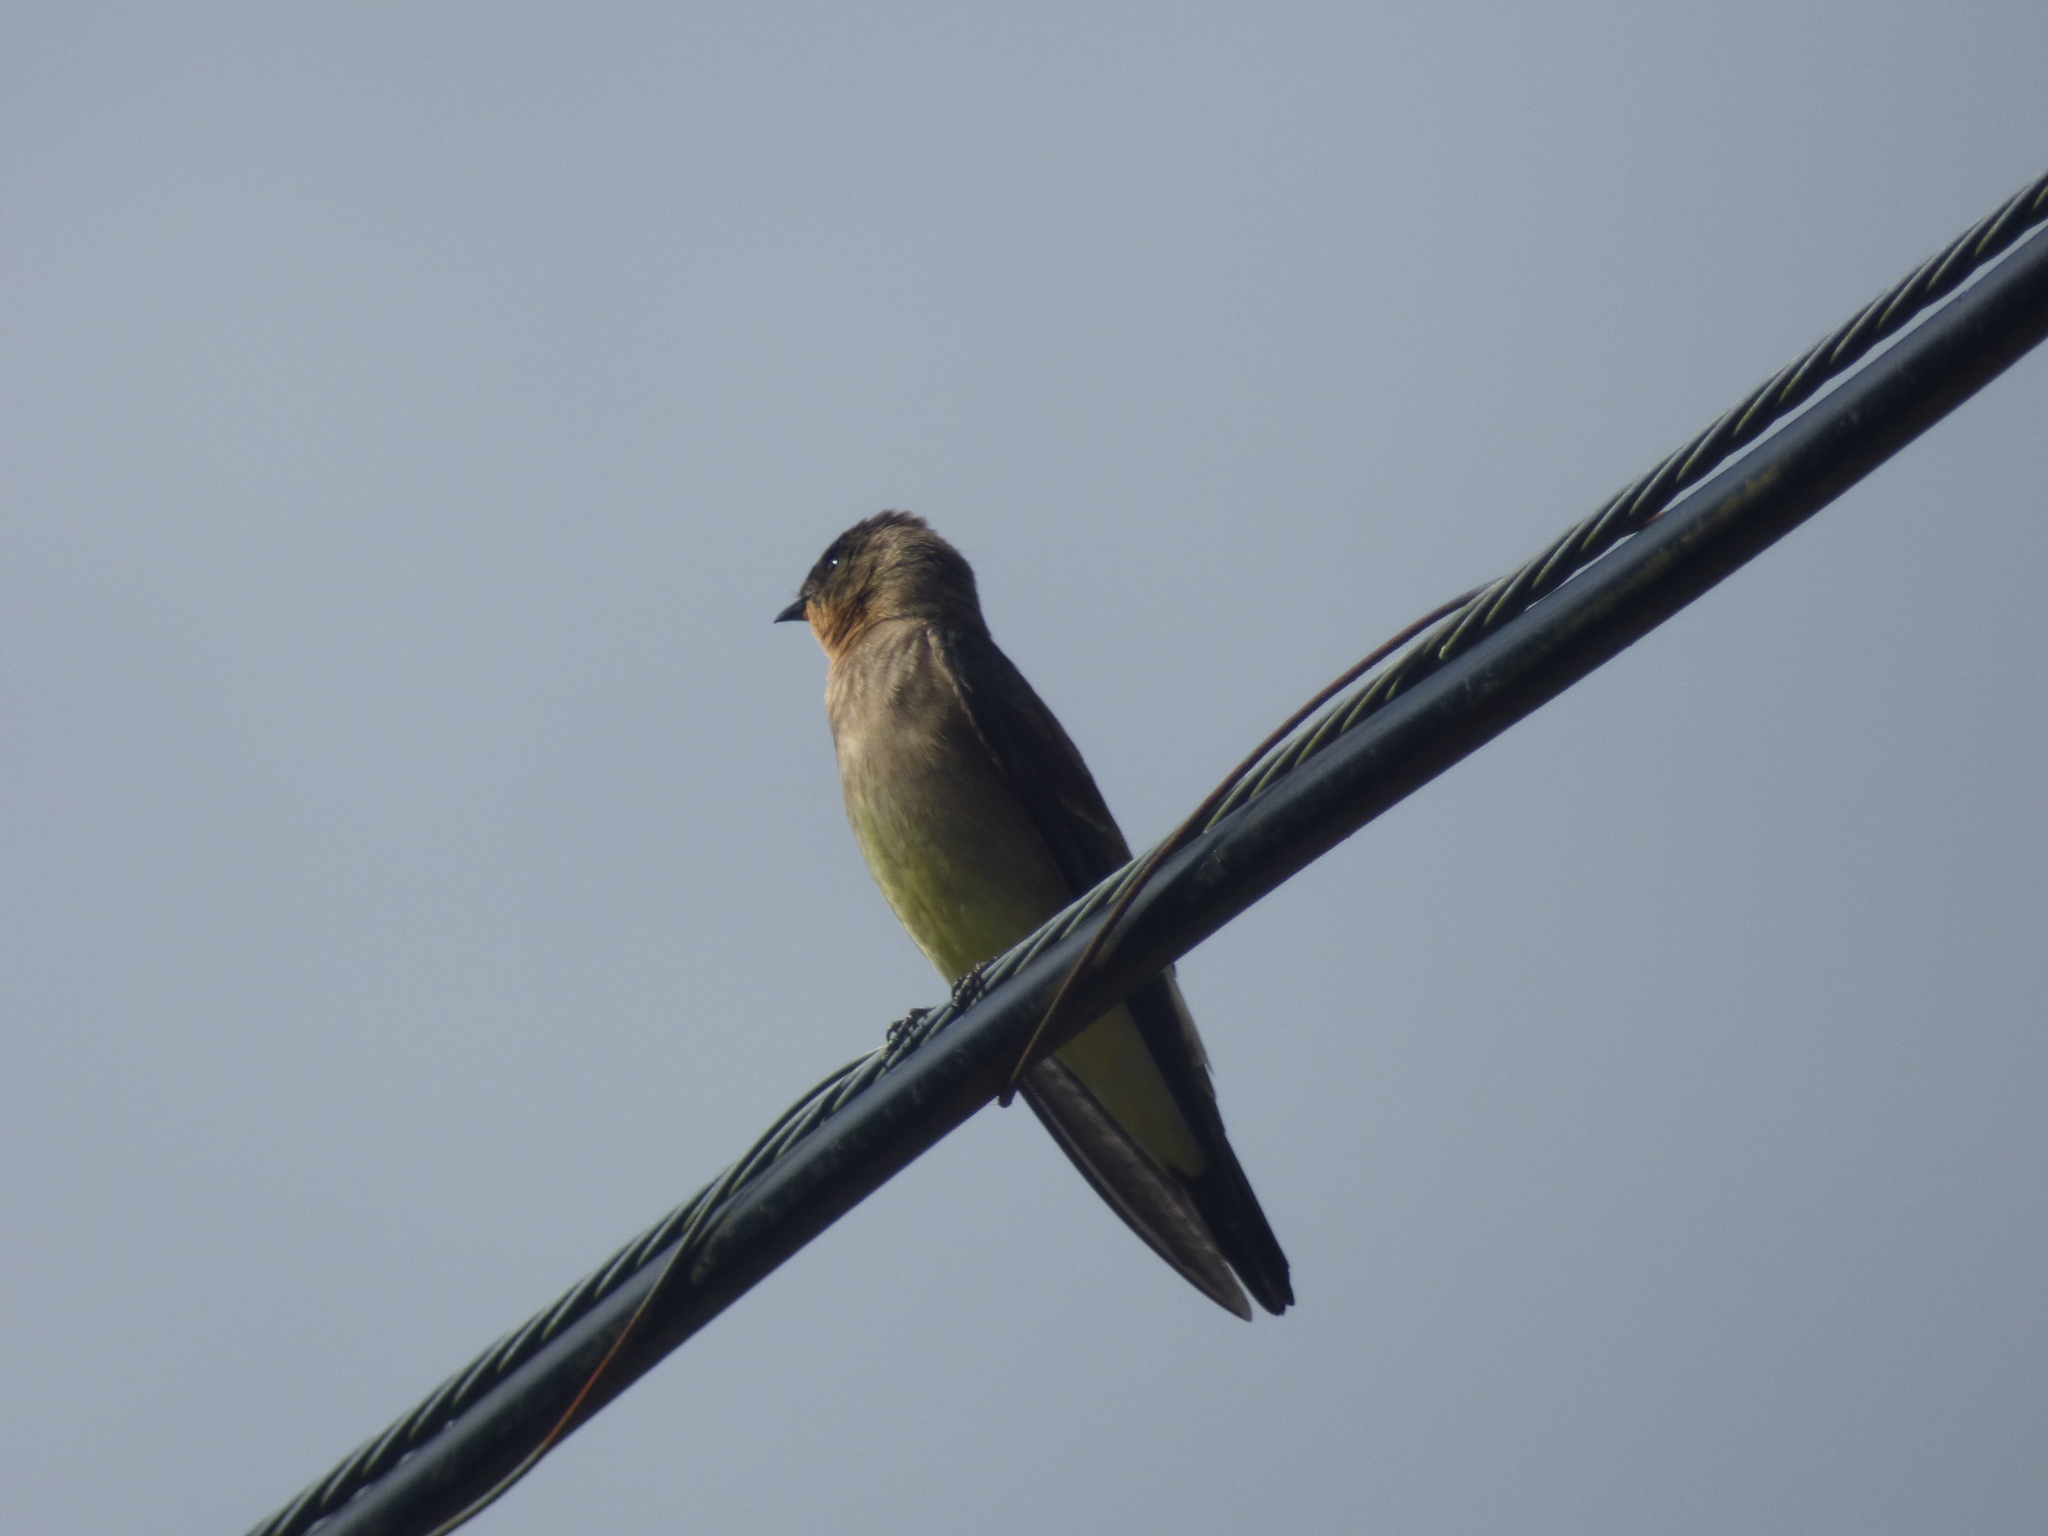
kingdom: Animalia
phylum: Chordata
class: Aves
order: Passeriformes
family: Hirundinidae
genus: Stelgidopteryx
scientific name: Stelgidopteryx ruficollis
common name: Southern rough-winged swallow
